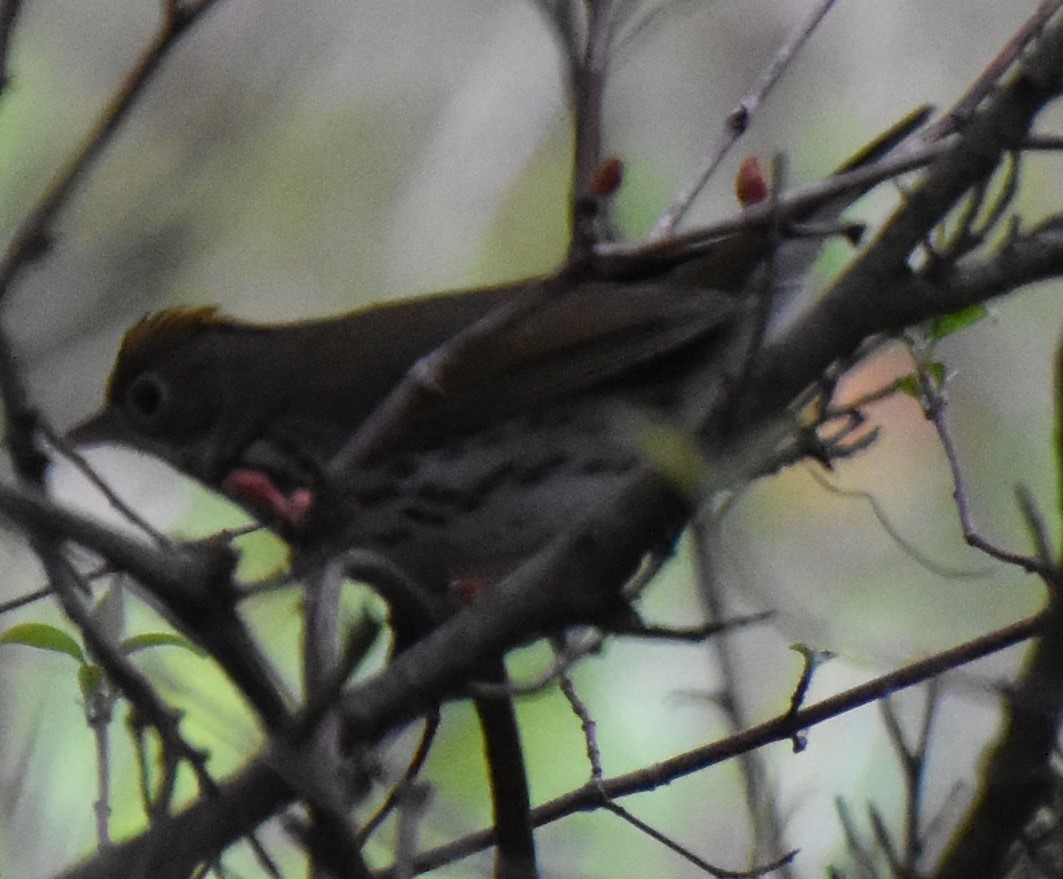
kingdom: Animalia
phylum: Chordata
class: Aves
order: Passeriformes
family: Parulidae
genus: Seiurus
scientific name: Seiurus aurocapilla
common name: Ovenbird
